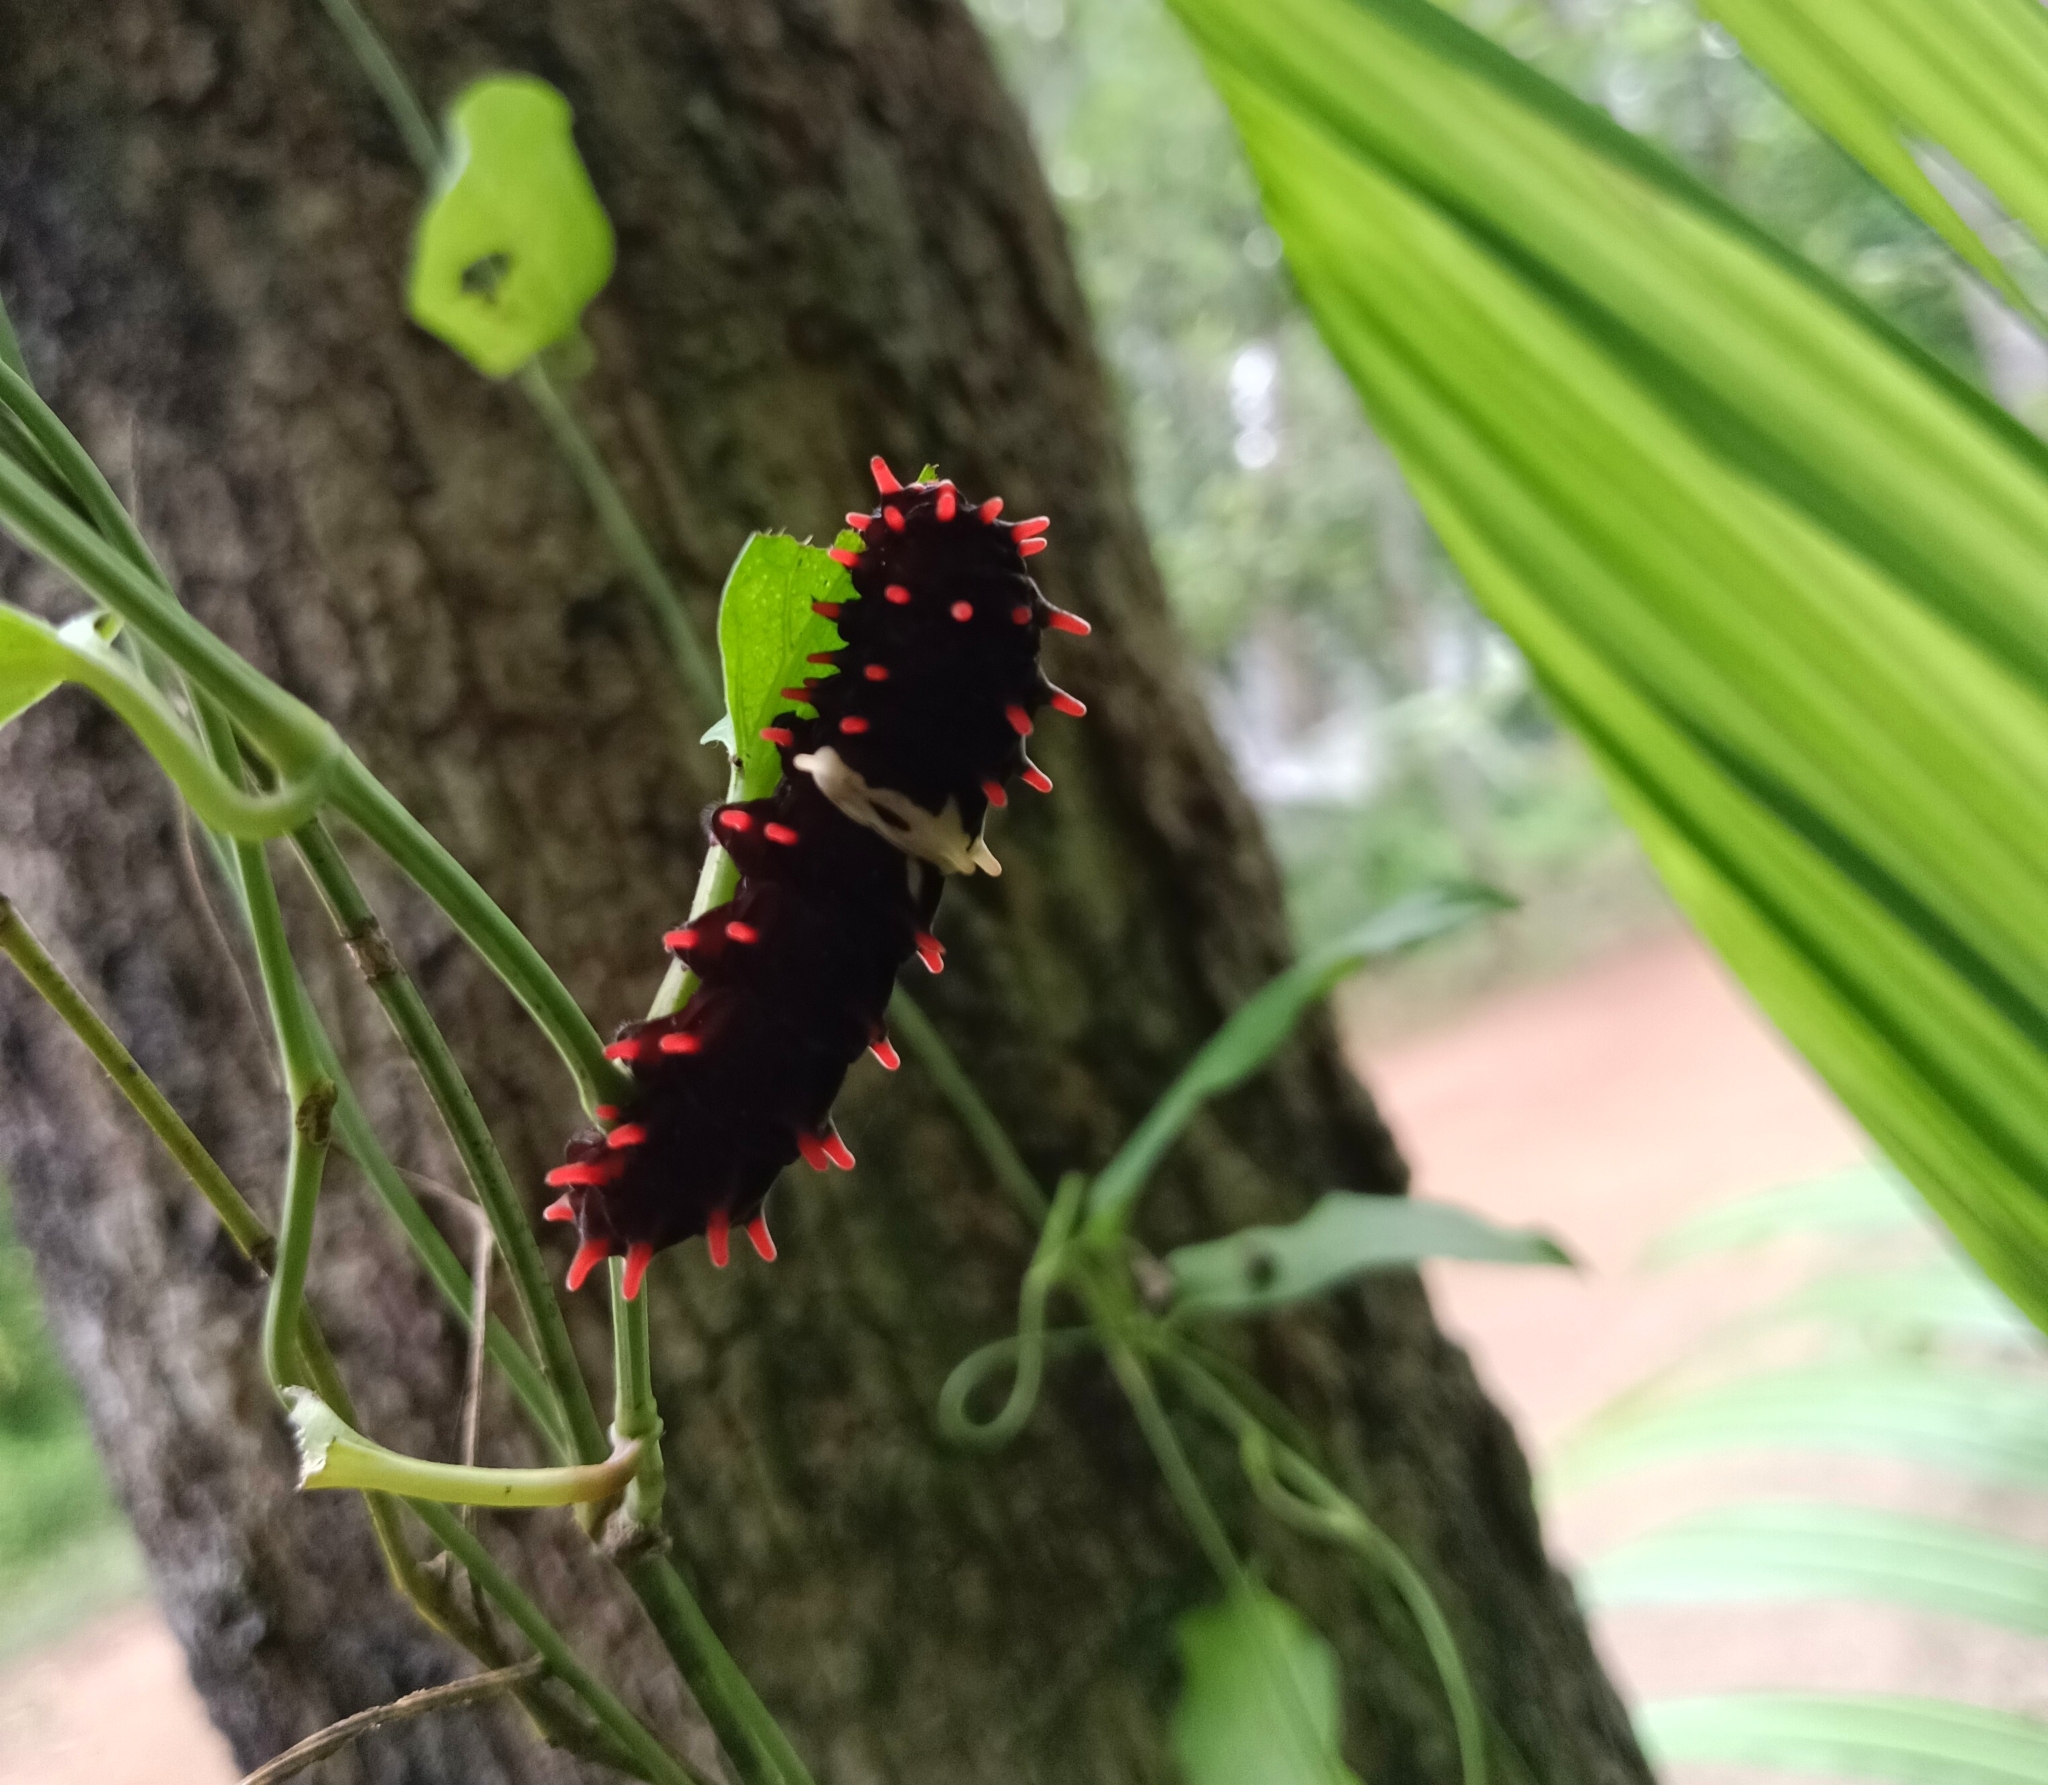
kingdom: Animalia
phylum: Arthropoda
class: Insecta
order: Lepidoptera
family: Papilionidae
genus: Pachliopta
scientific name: Pachliopta aristolochiae
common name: Common rose
